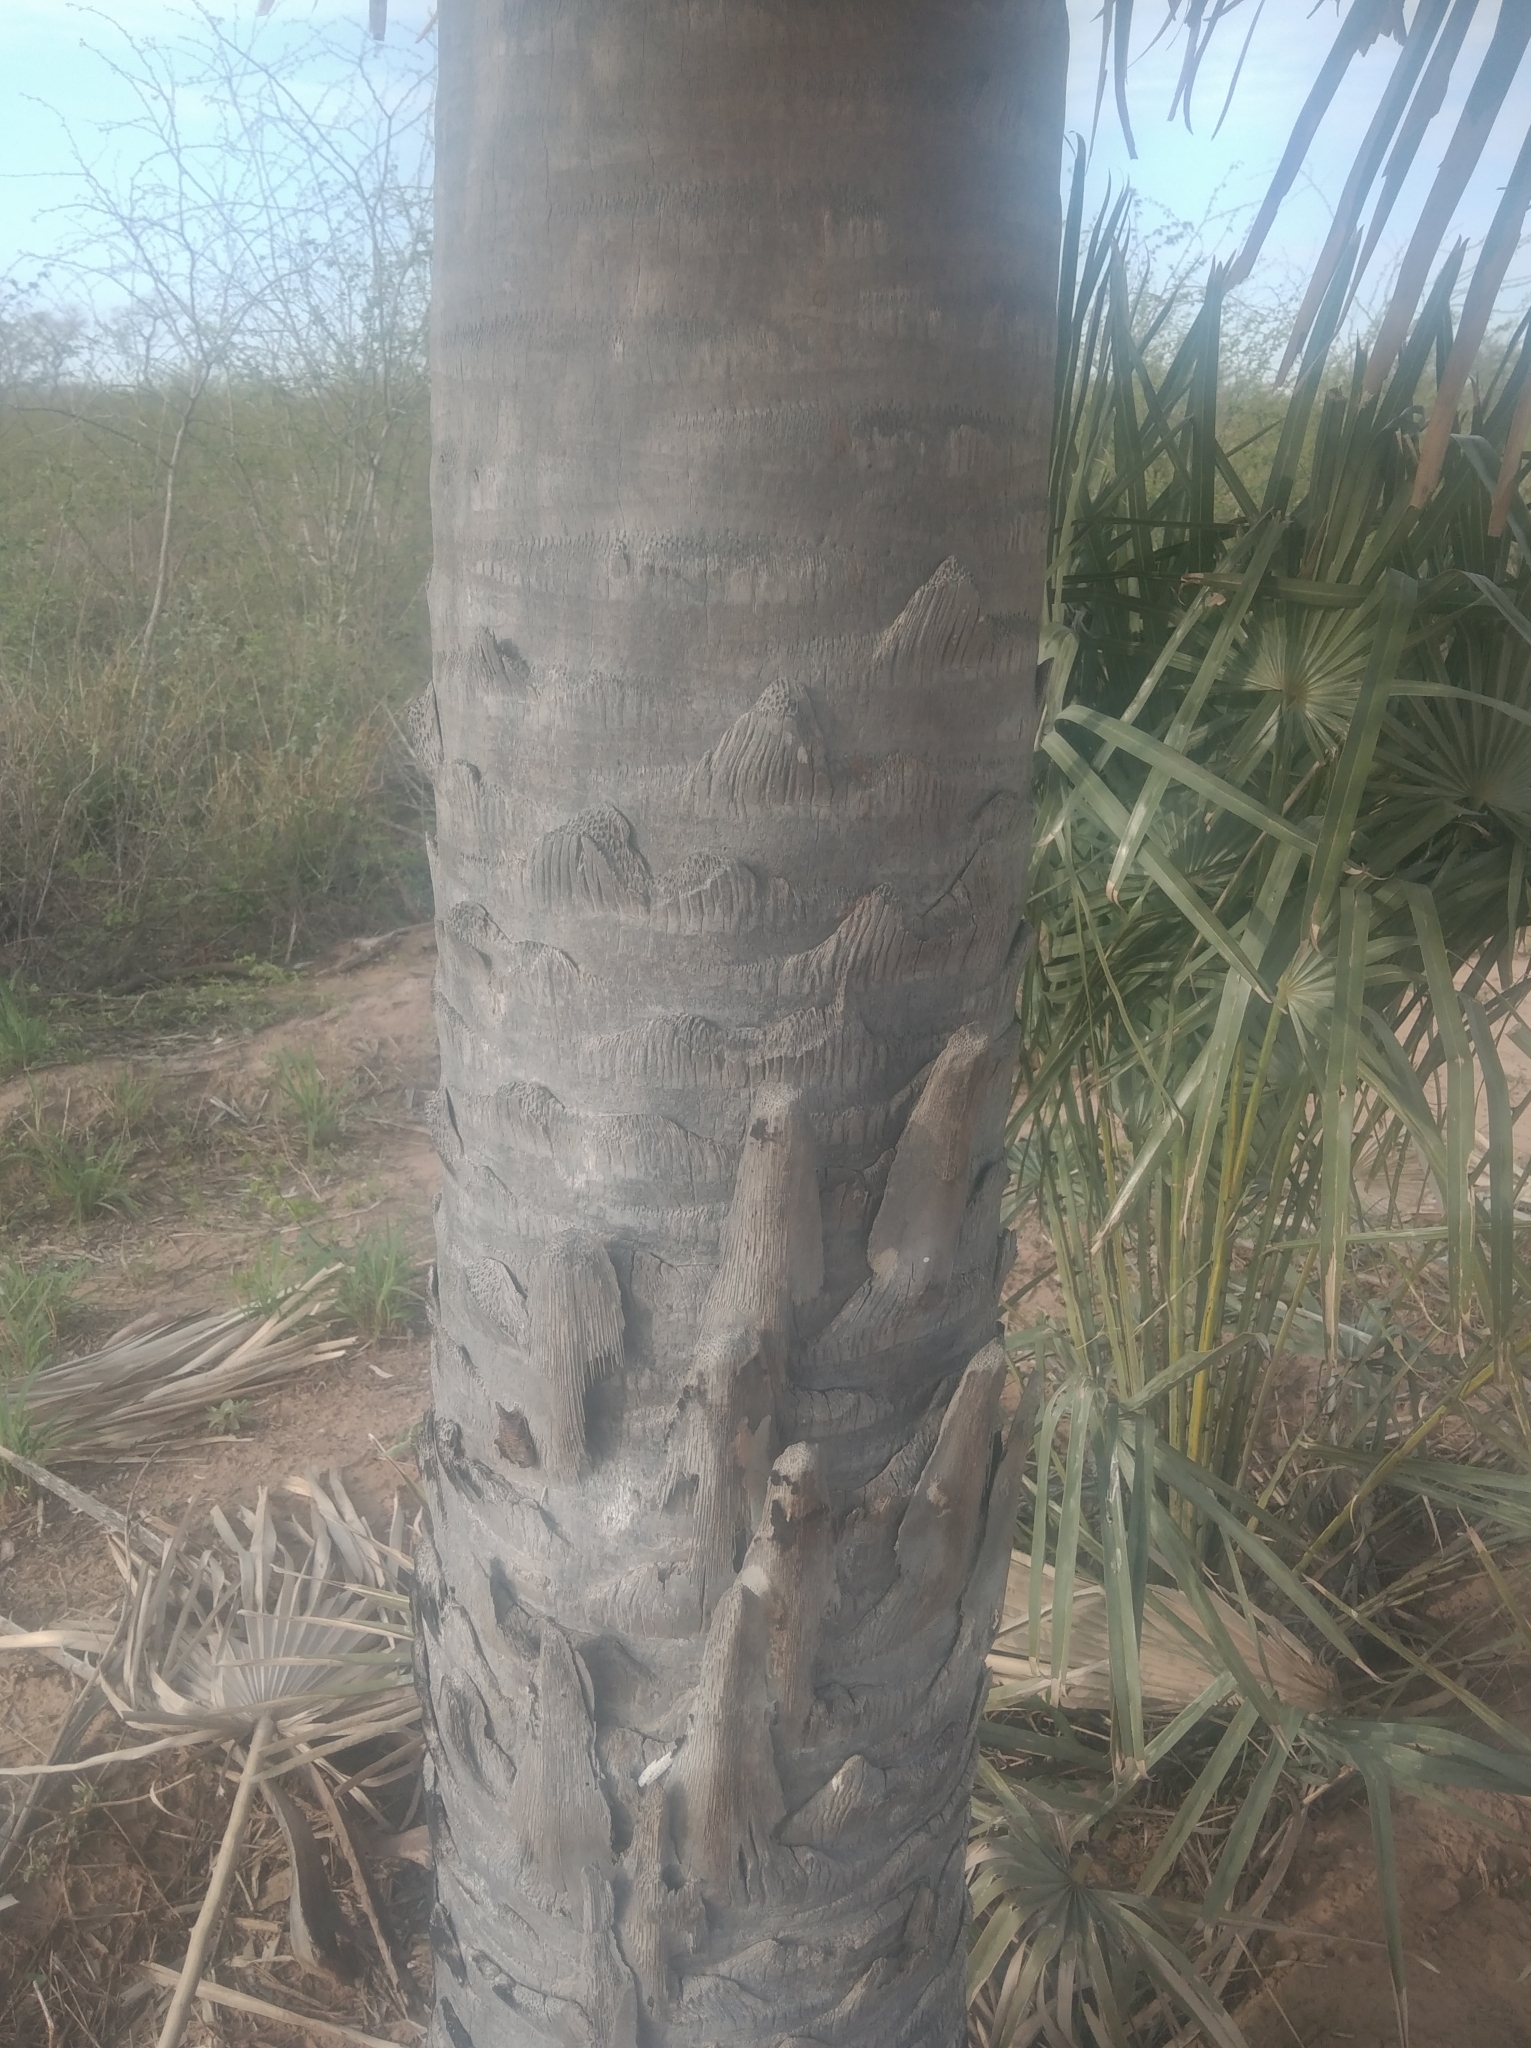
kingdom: Plantae
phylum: Tracheophyta
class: Liliopsida
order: Arecales
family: Arecaceae
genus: Copernicia
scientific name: Copernicia alba
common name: Caranday palm
